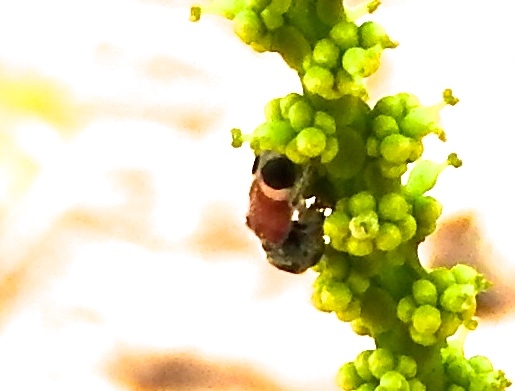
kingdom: Animalia
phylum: Arthropoda
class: Insecta
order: Coleoptera
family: Cleridae
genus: Enoclerus
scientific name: Enoclerus opifex
